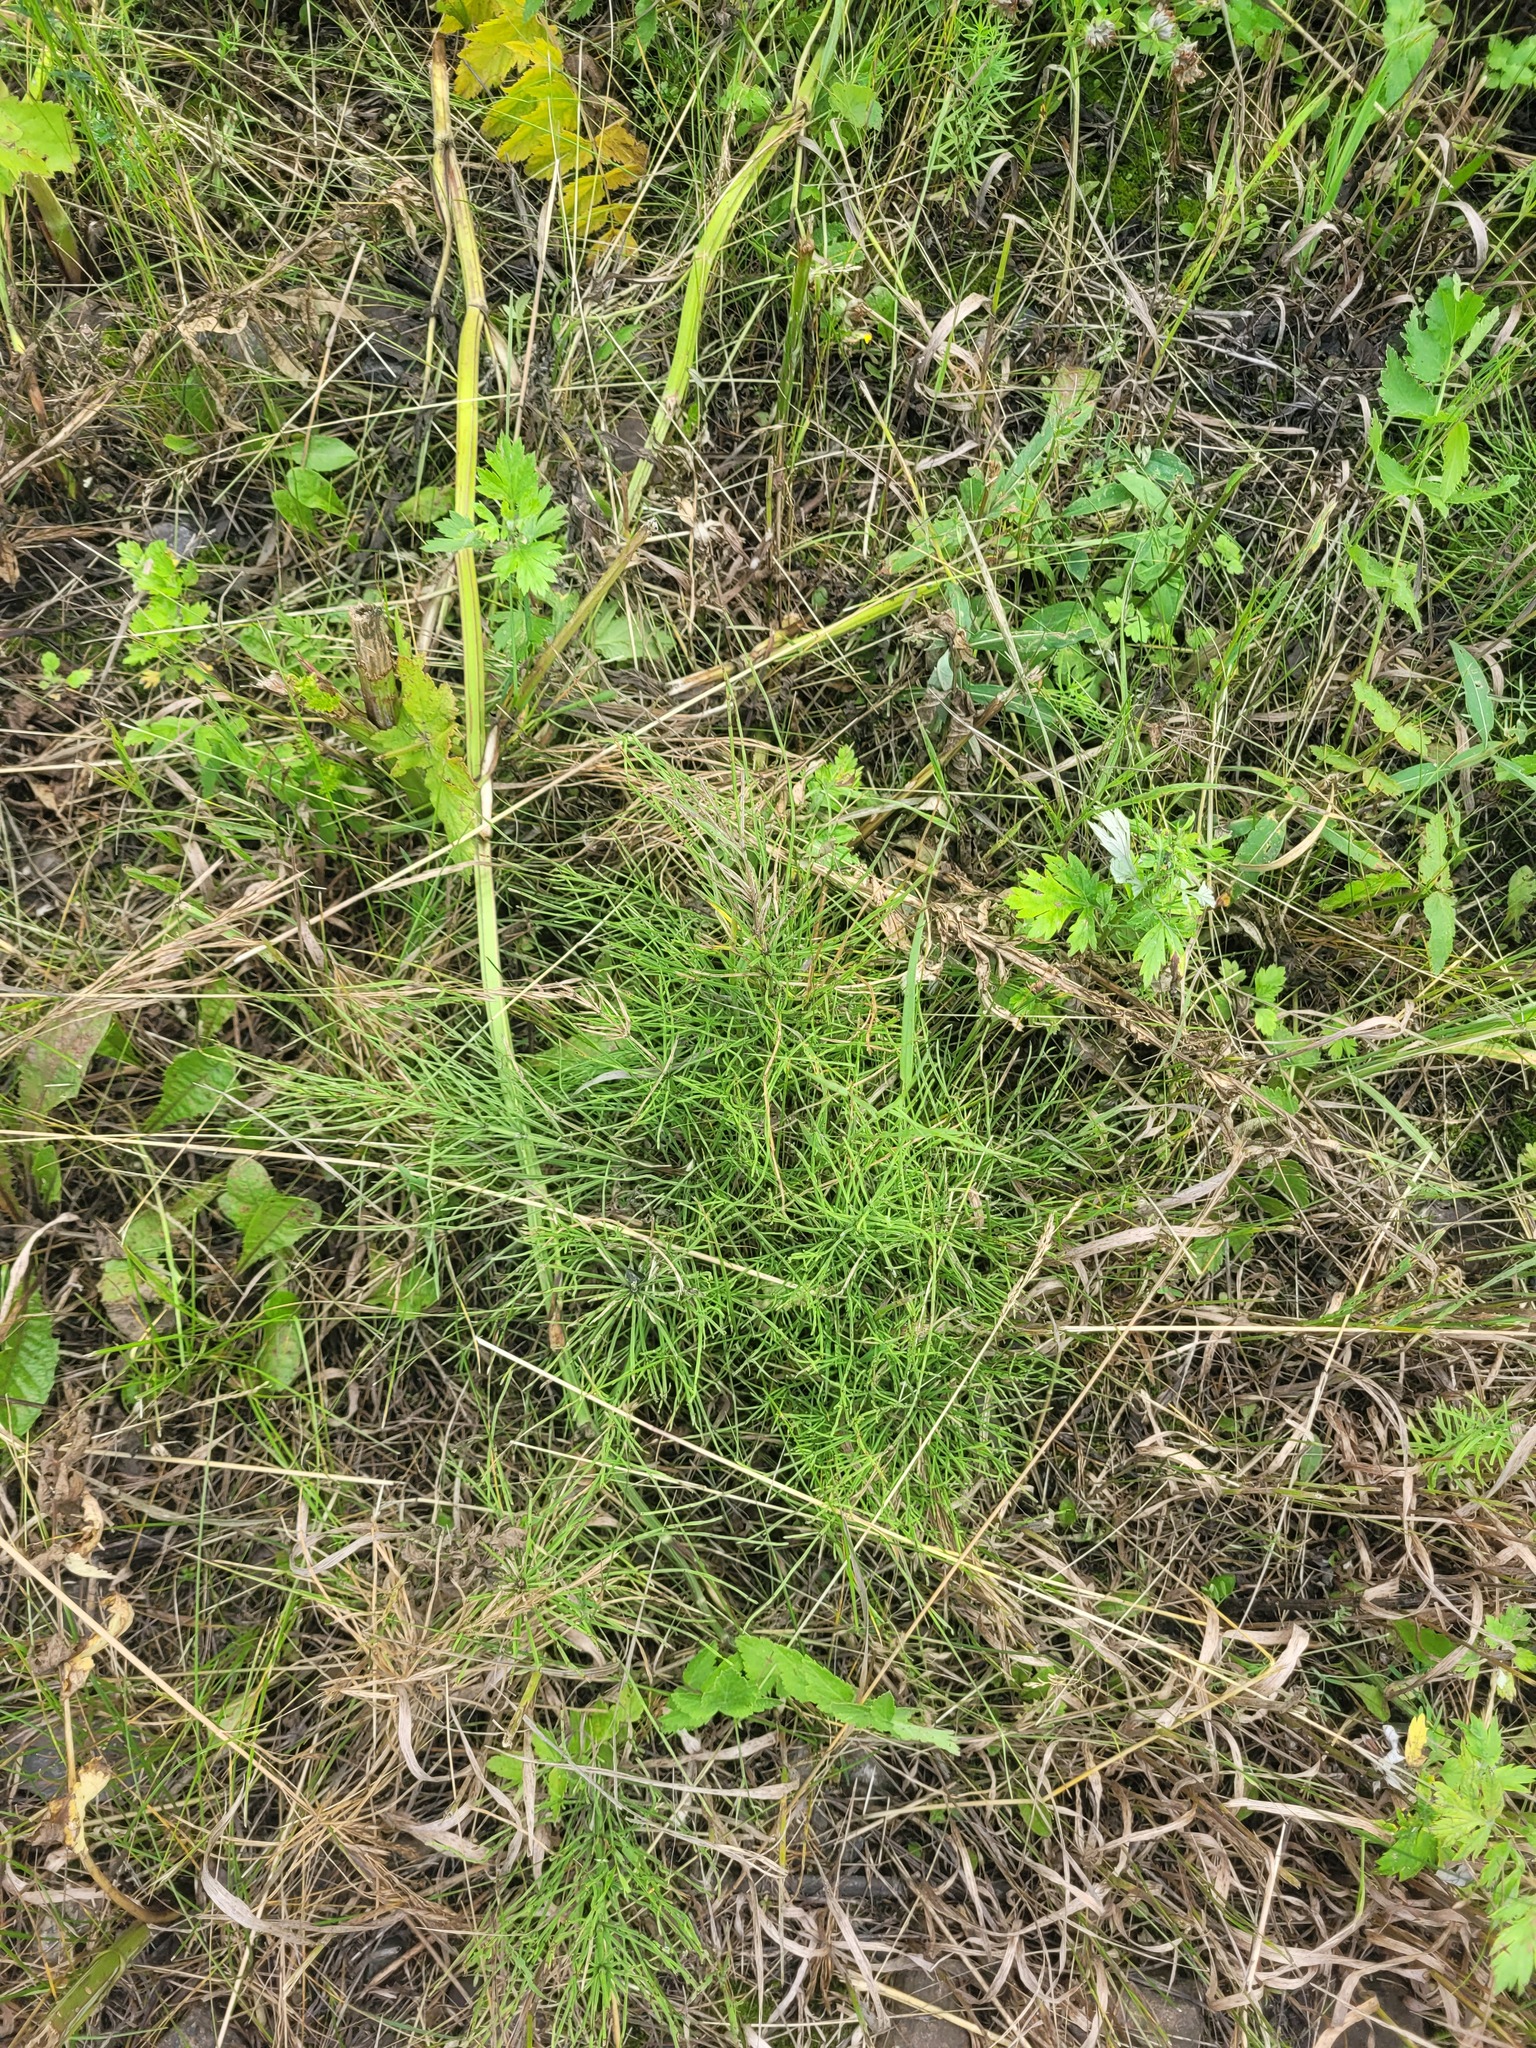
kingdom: Plantae
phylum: Tracheophyta
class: Polypodiopsida
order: Equisetales
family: Equisetaceae
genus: Equisetum
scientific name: Equisetum arvense
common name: Field horsetail
